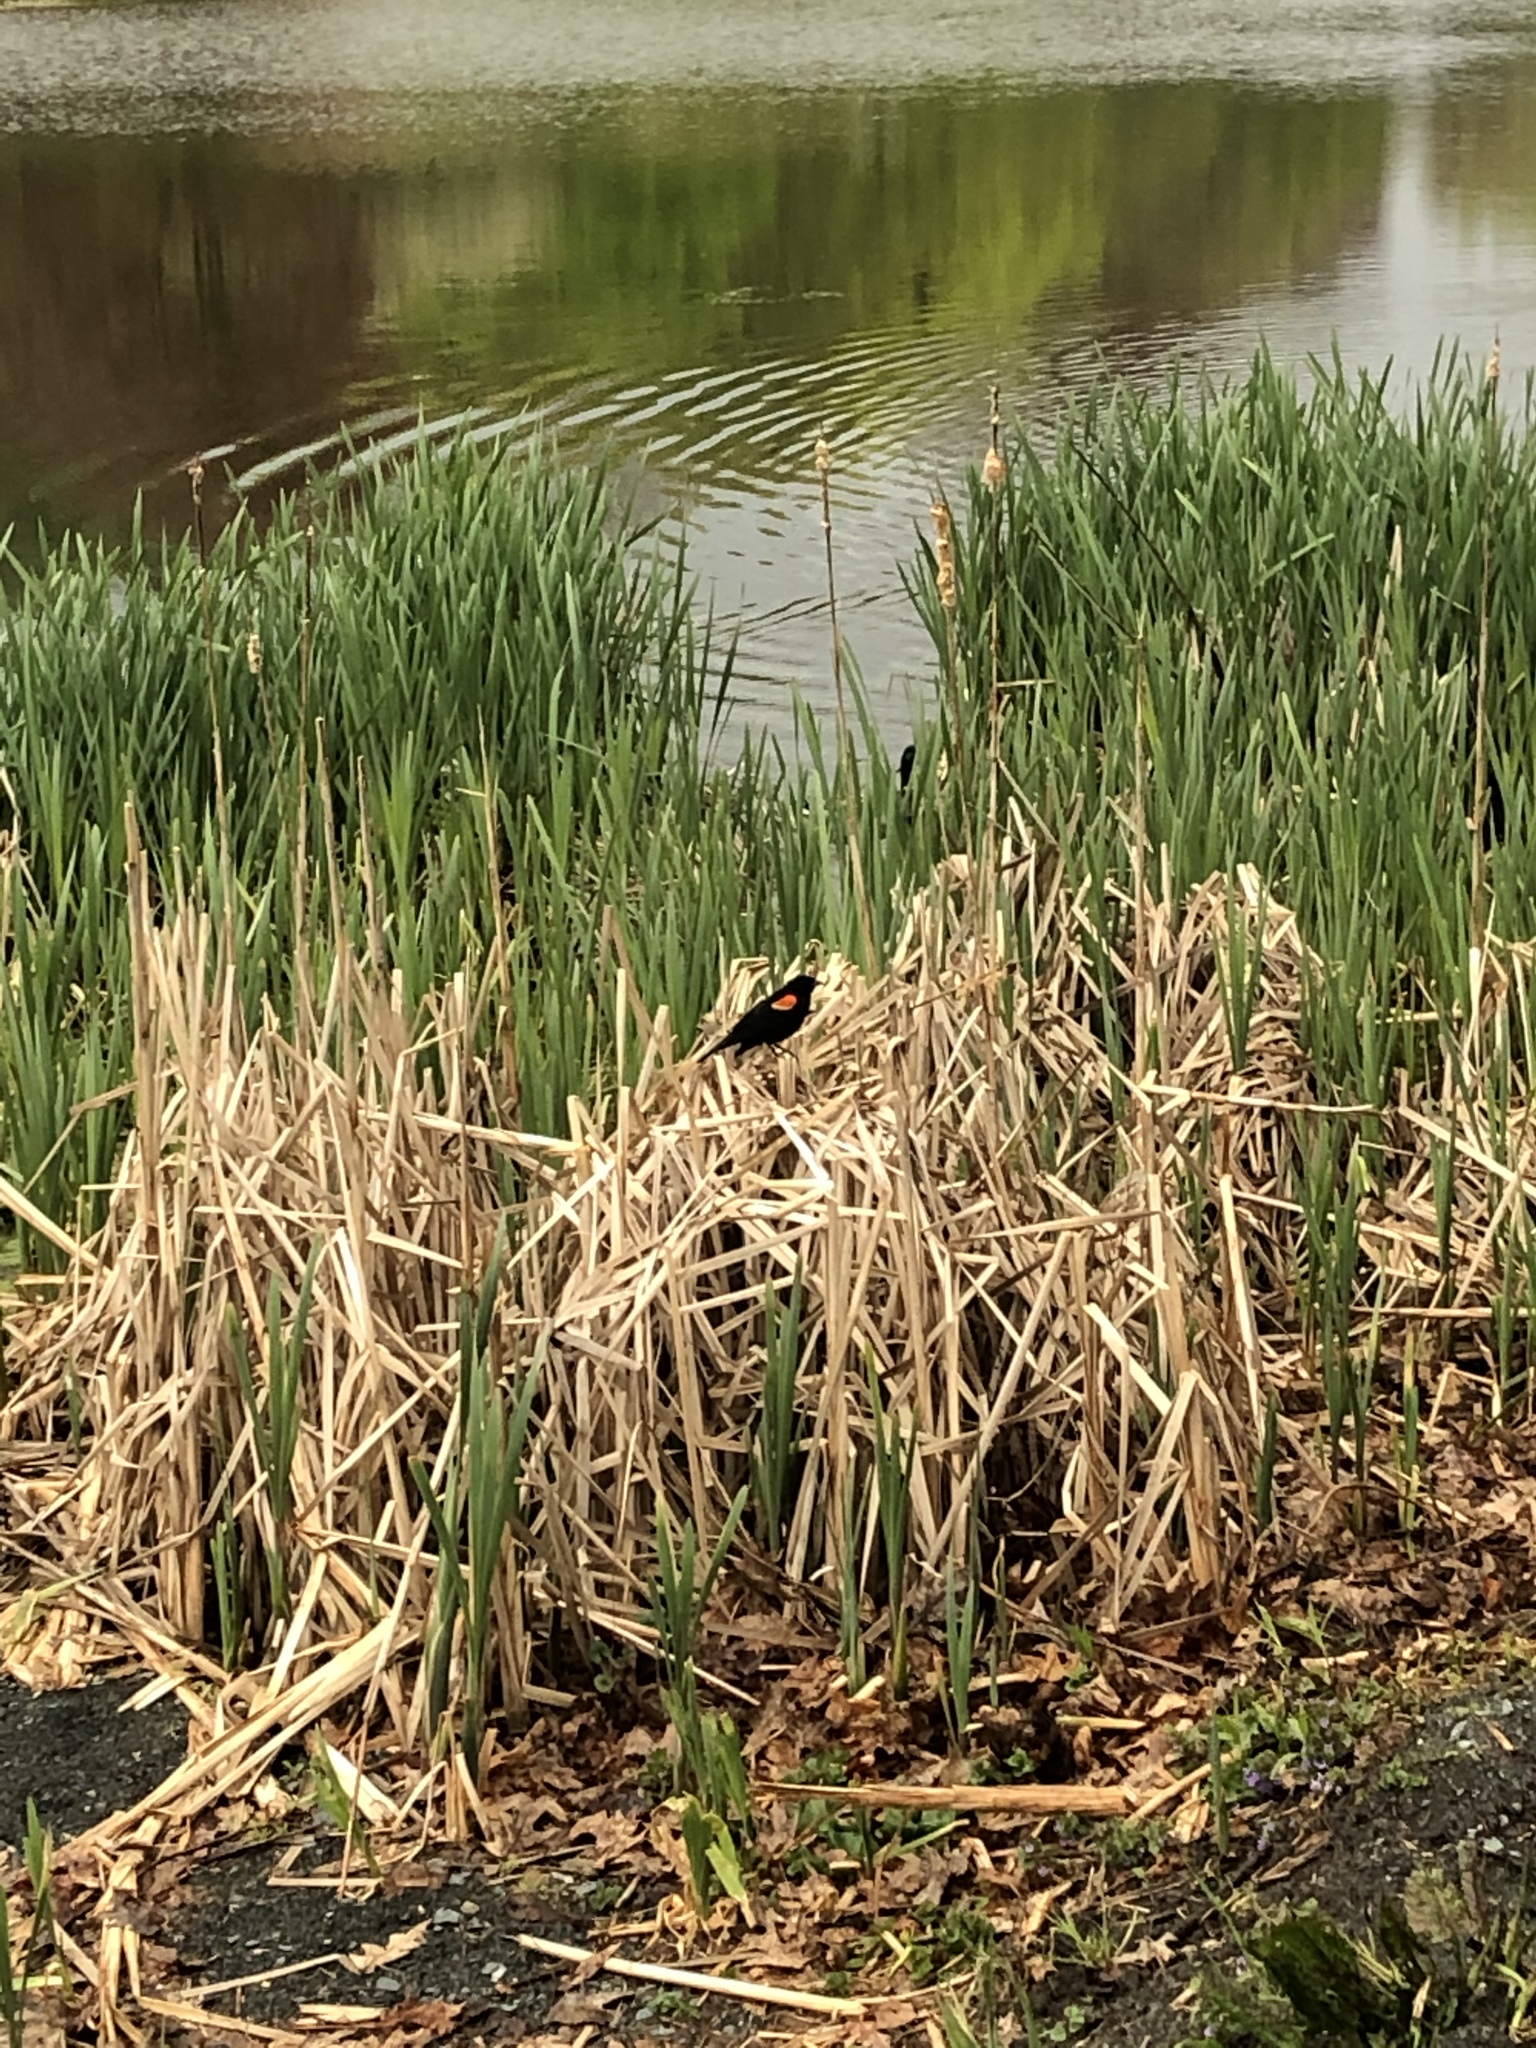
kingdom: Animalia
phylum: Chordata
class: Aves
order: Passeriformes
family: Icteridae
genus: Agelaius
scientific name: Agelaius phoeniceus
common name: Red-winged blackbird
